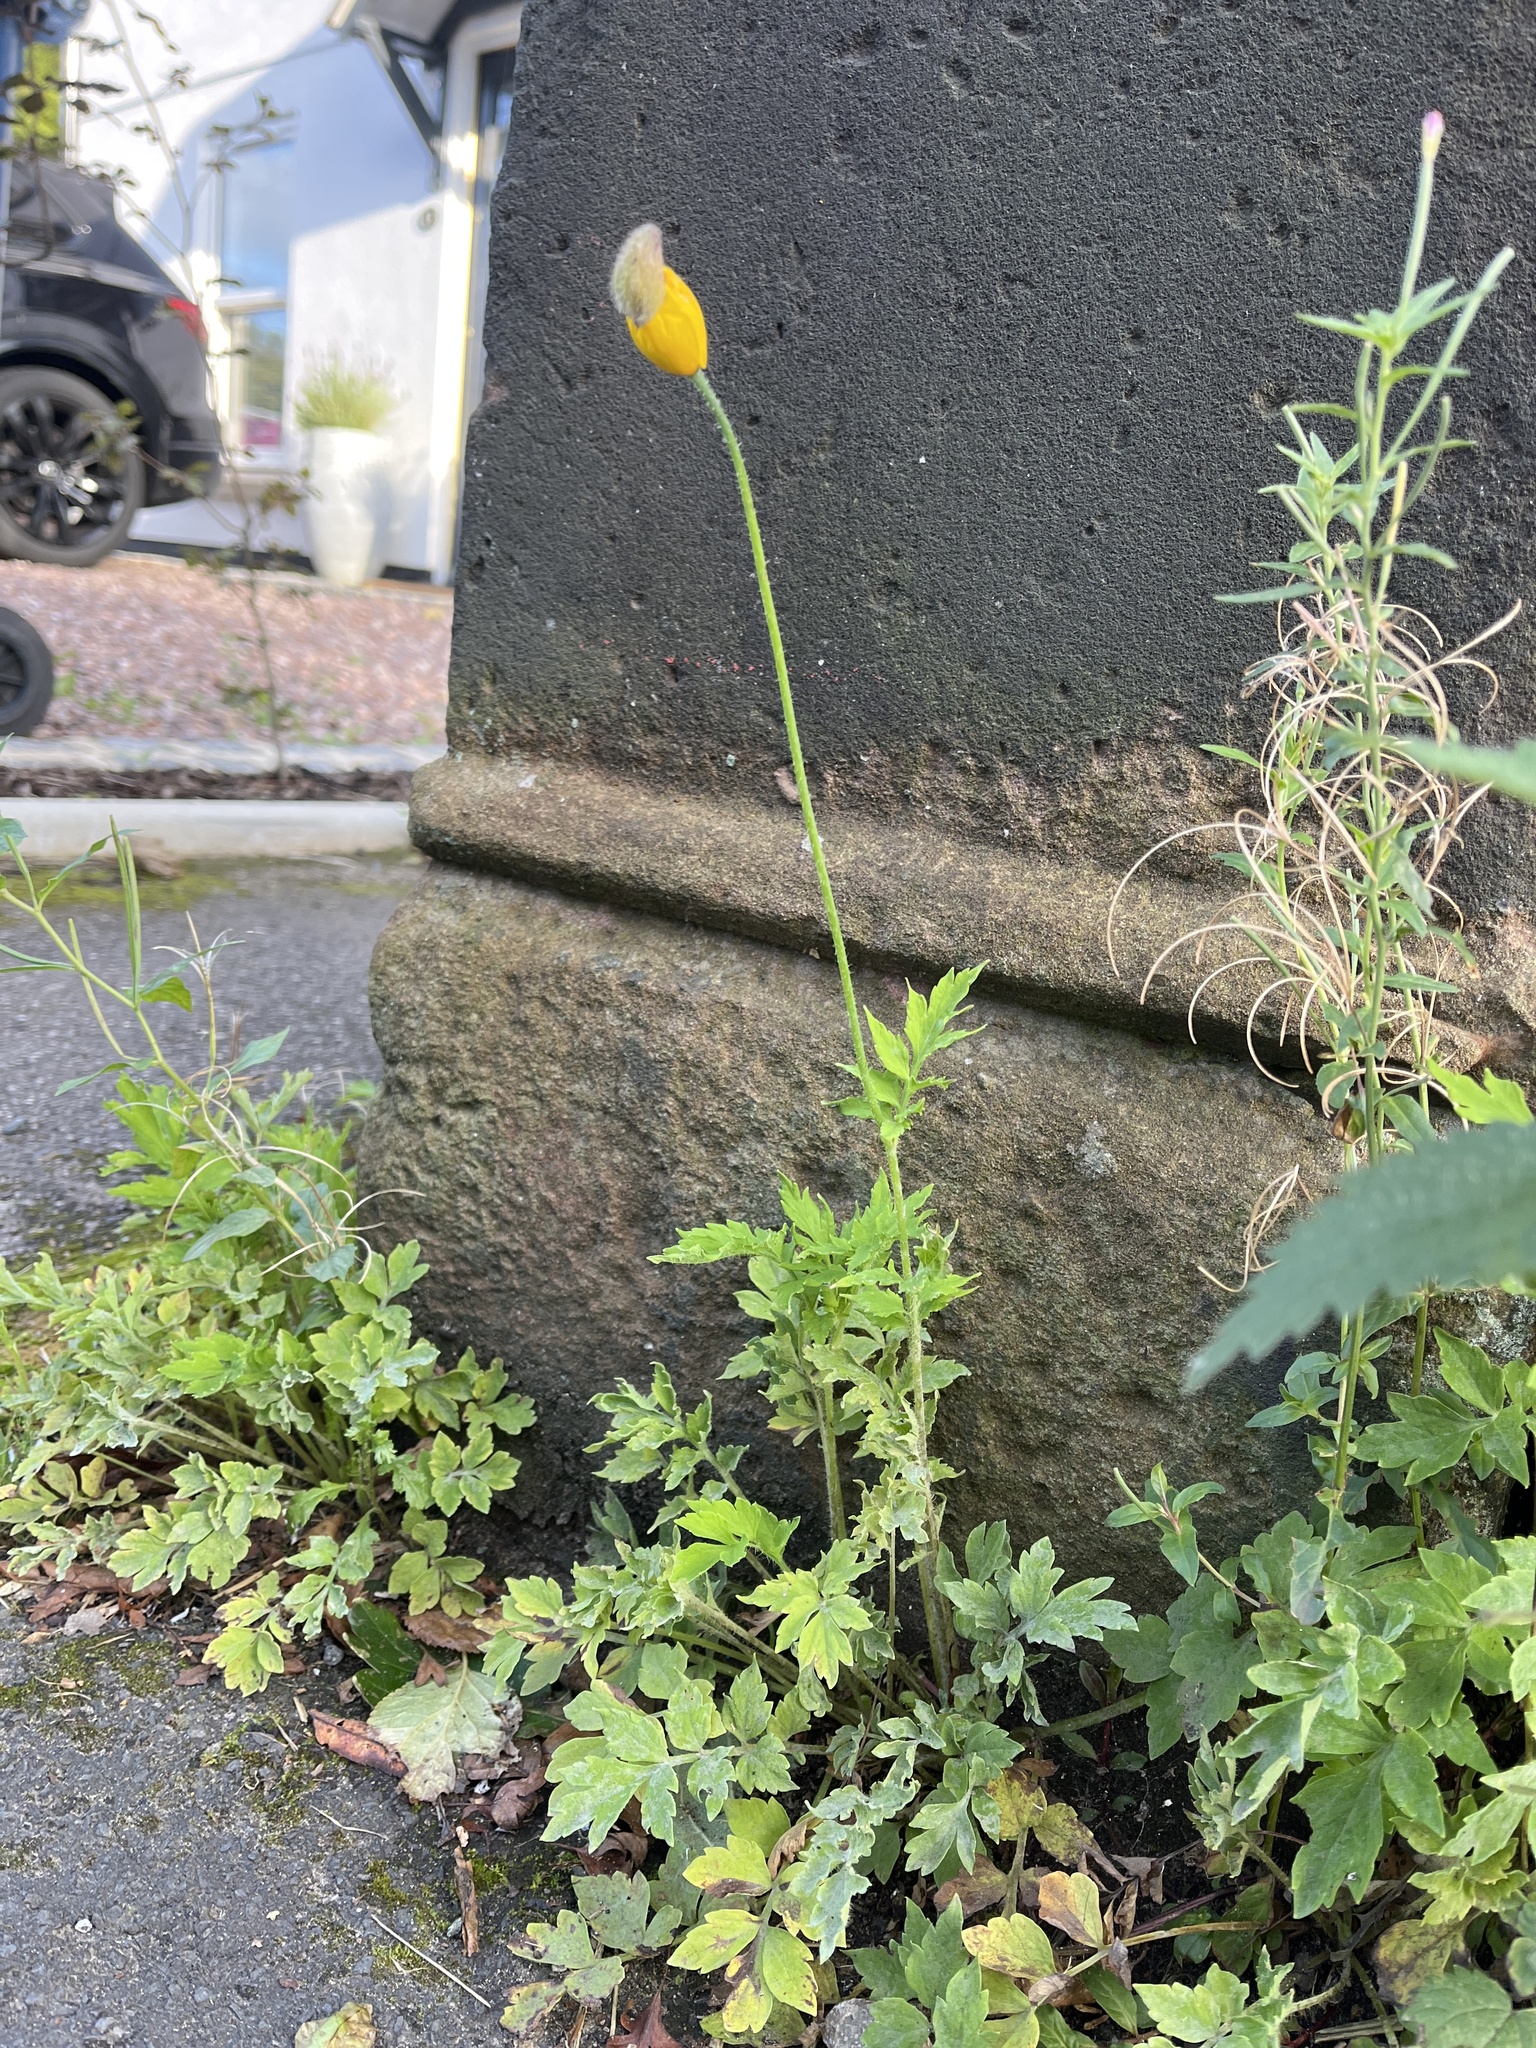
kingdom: Plantae
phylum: Tracheophyta
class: Magnoliopsida
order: Ranunculales
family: Papaveraceae
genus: Papaver
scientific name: Papaver cambricum
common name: Poppy
